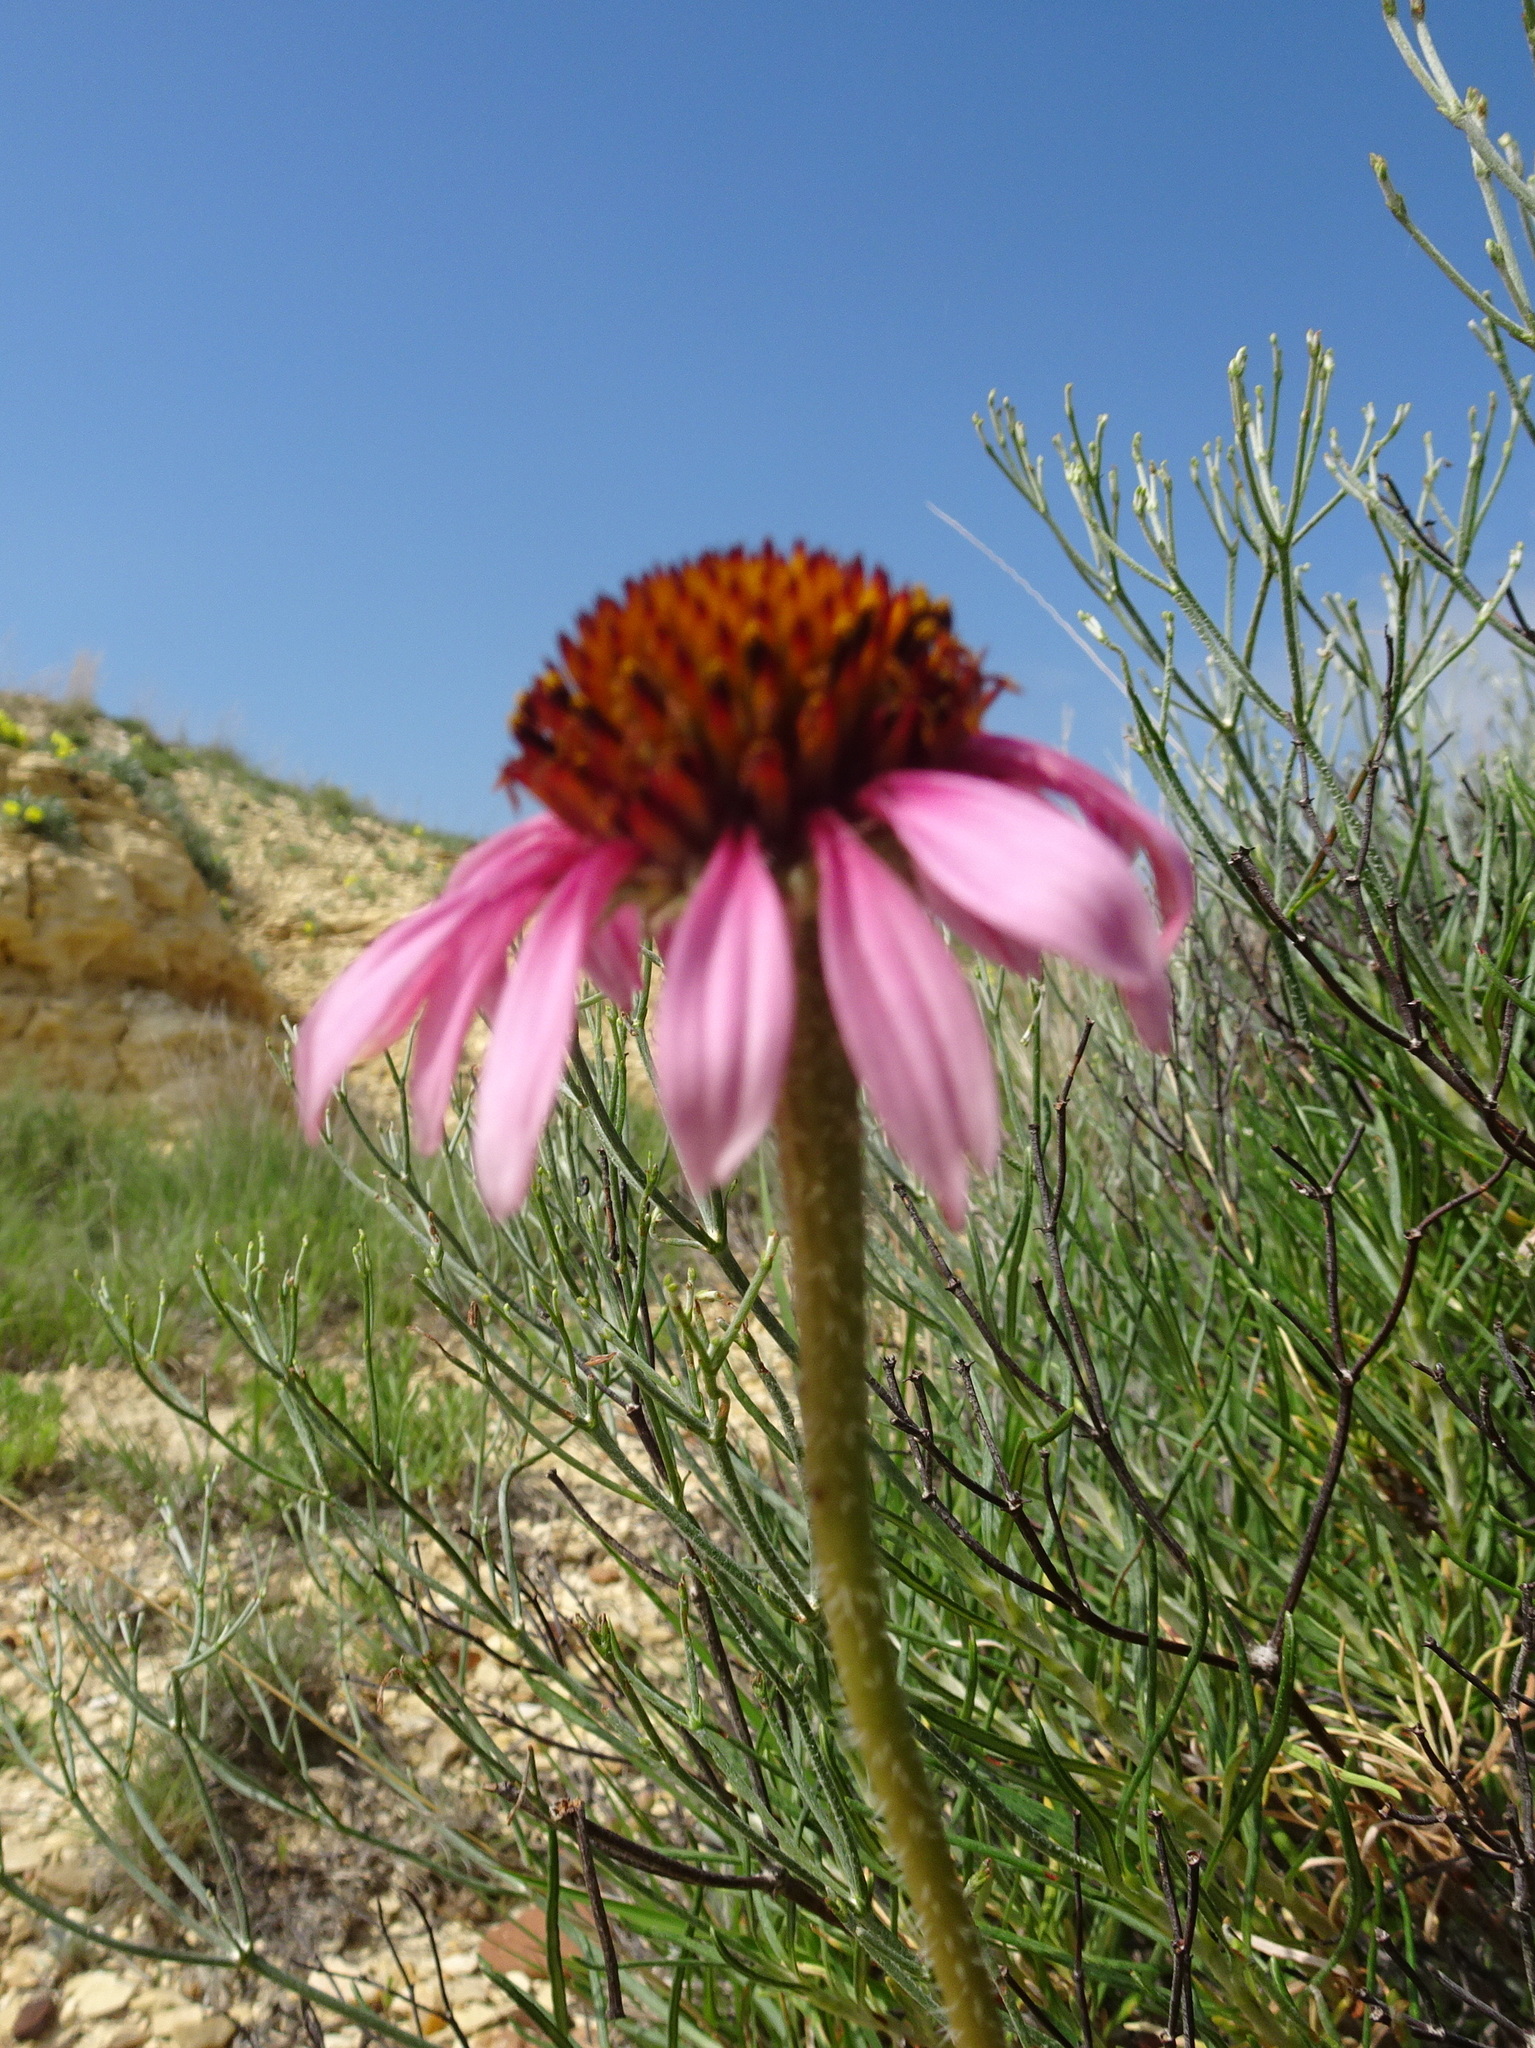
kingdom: Plantae
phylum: Tracheophyta
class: Magnoliopsida
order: Asterales
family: Asteraceae
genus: Echinacea
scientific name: Echinacea angustifolia
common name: Black-sampson echinacea
